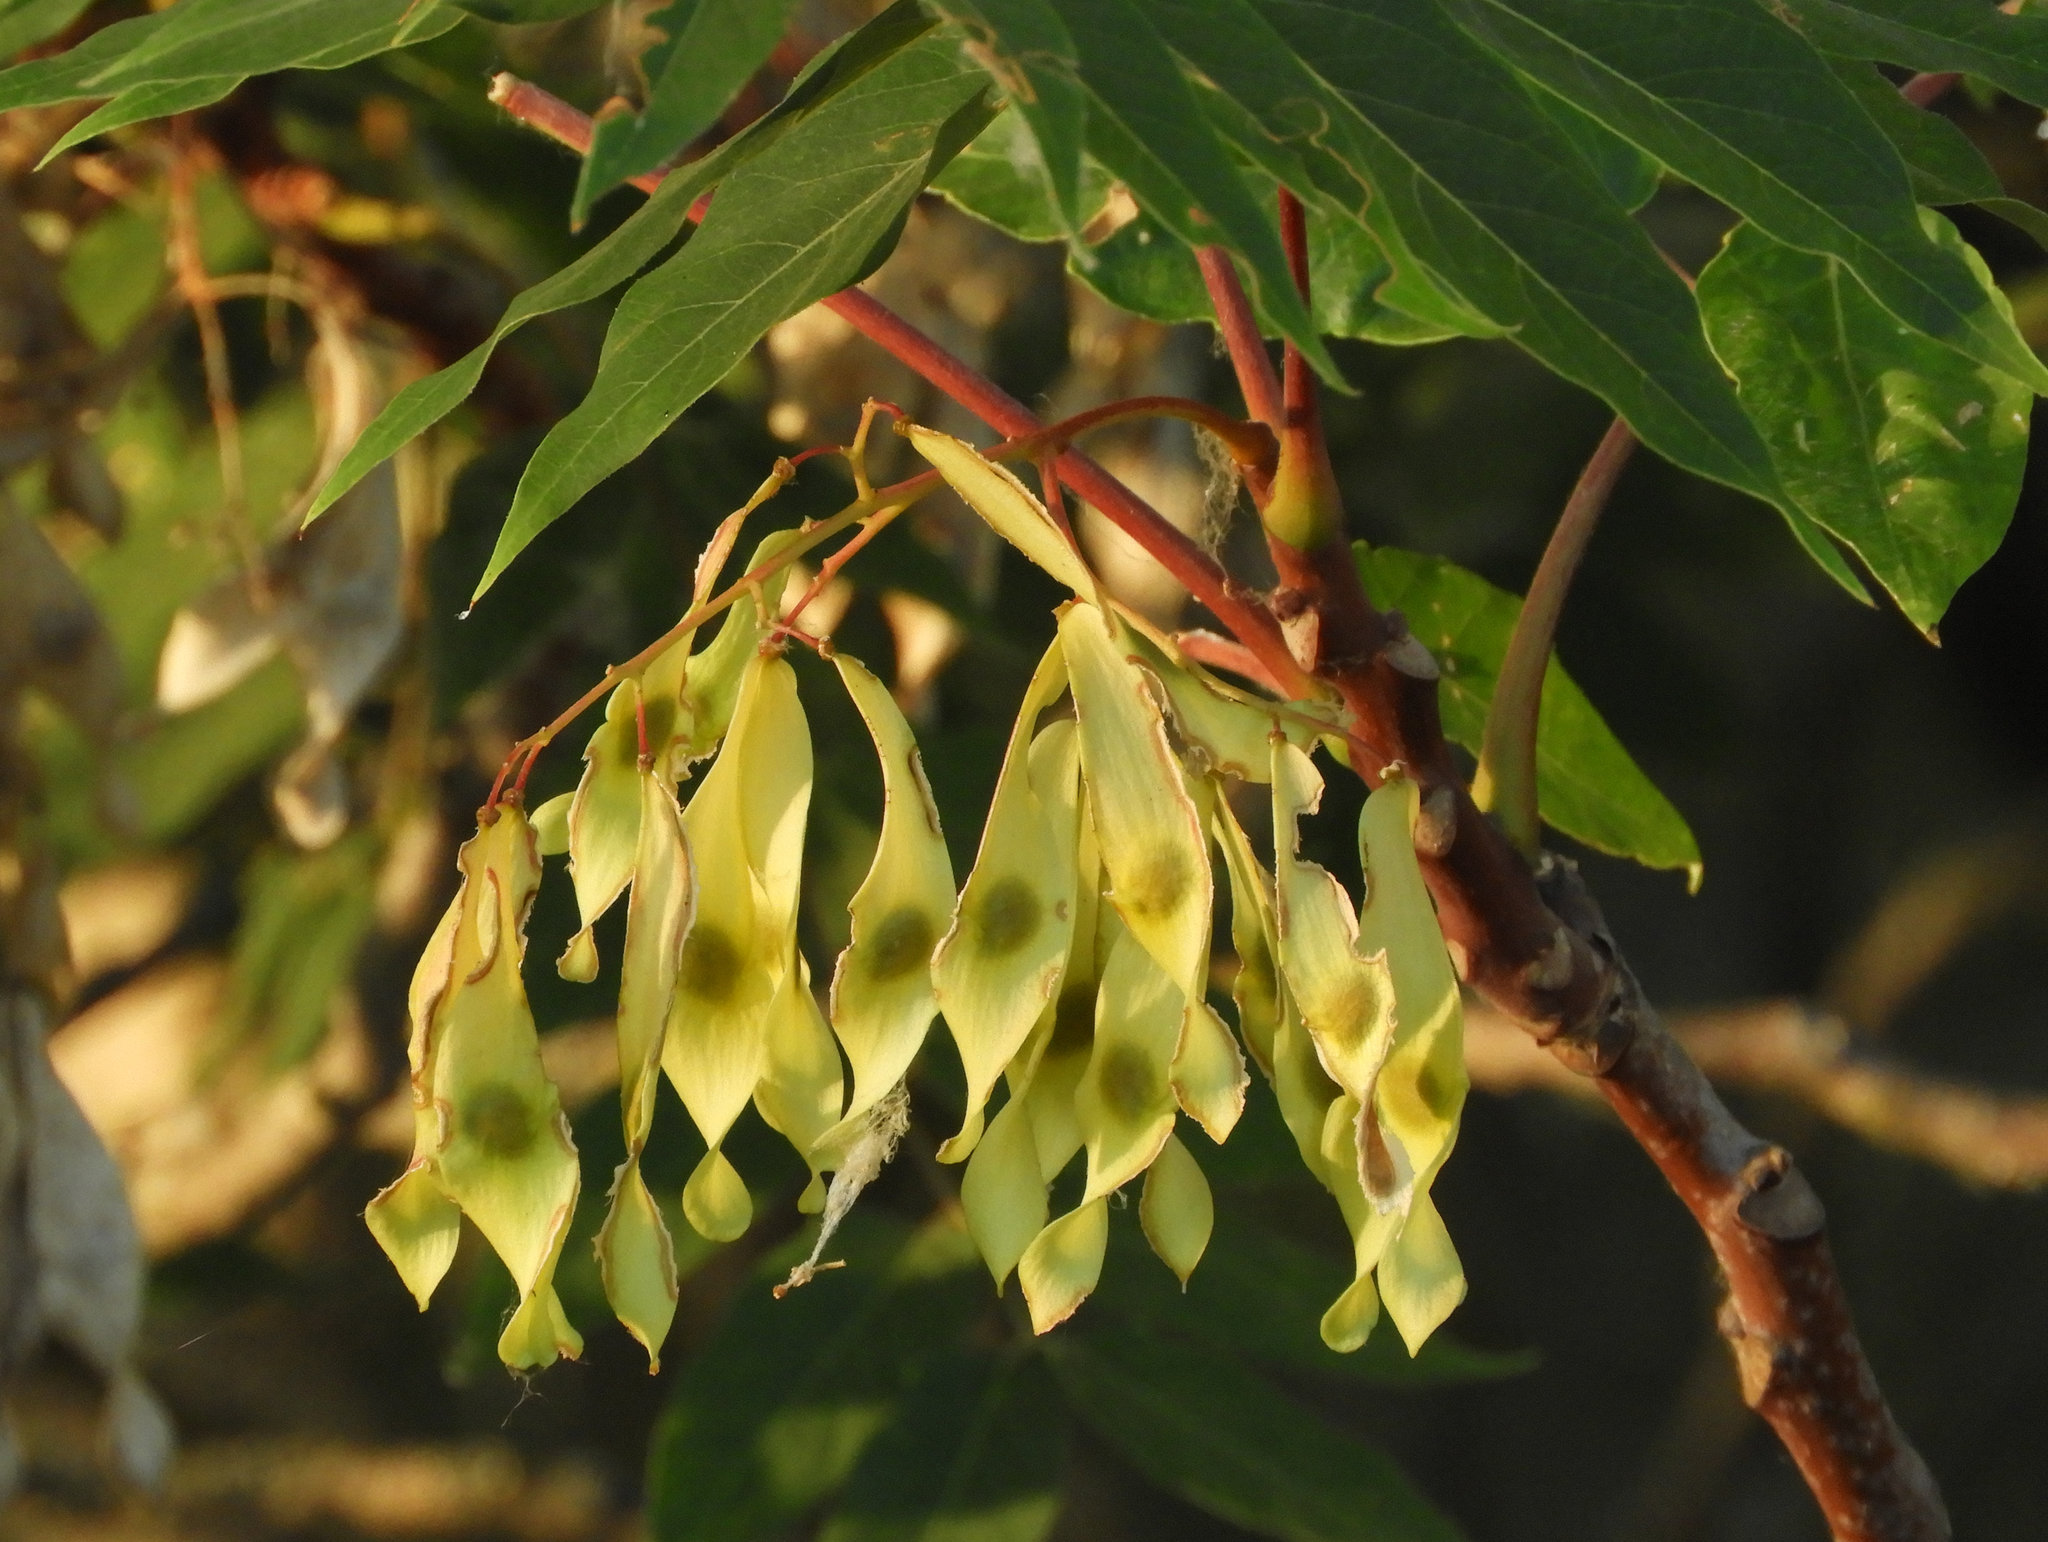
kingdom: Plantae
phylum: Tracheophyta
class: Magnoliopsida
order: Sapindales
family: Simaroubaceae
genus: Ailanthus
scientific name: Ailanthus altissima
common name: Tree-of-heaven
